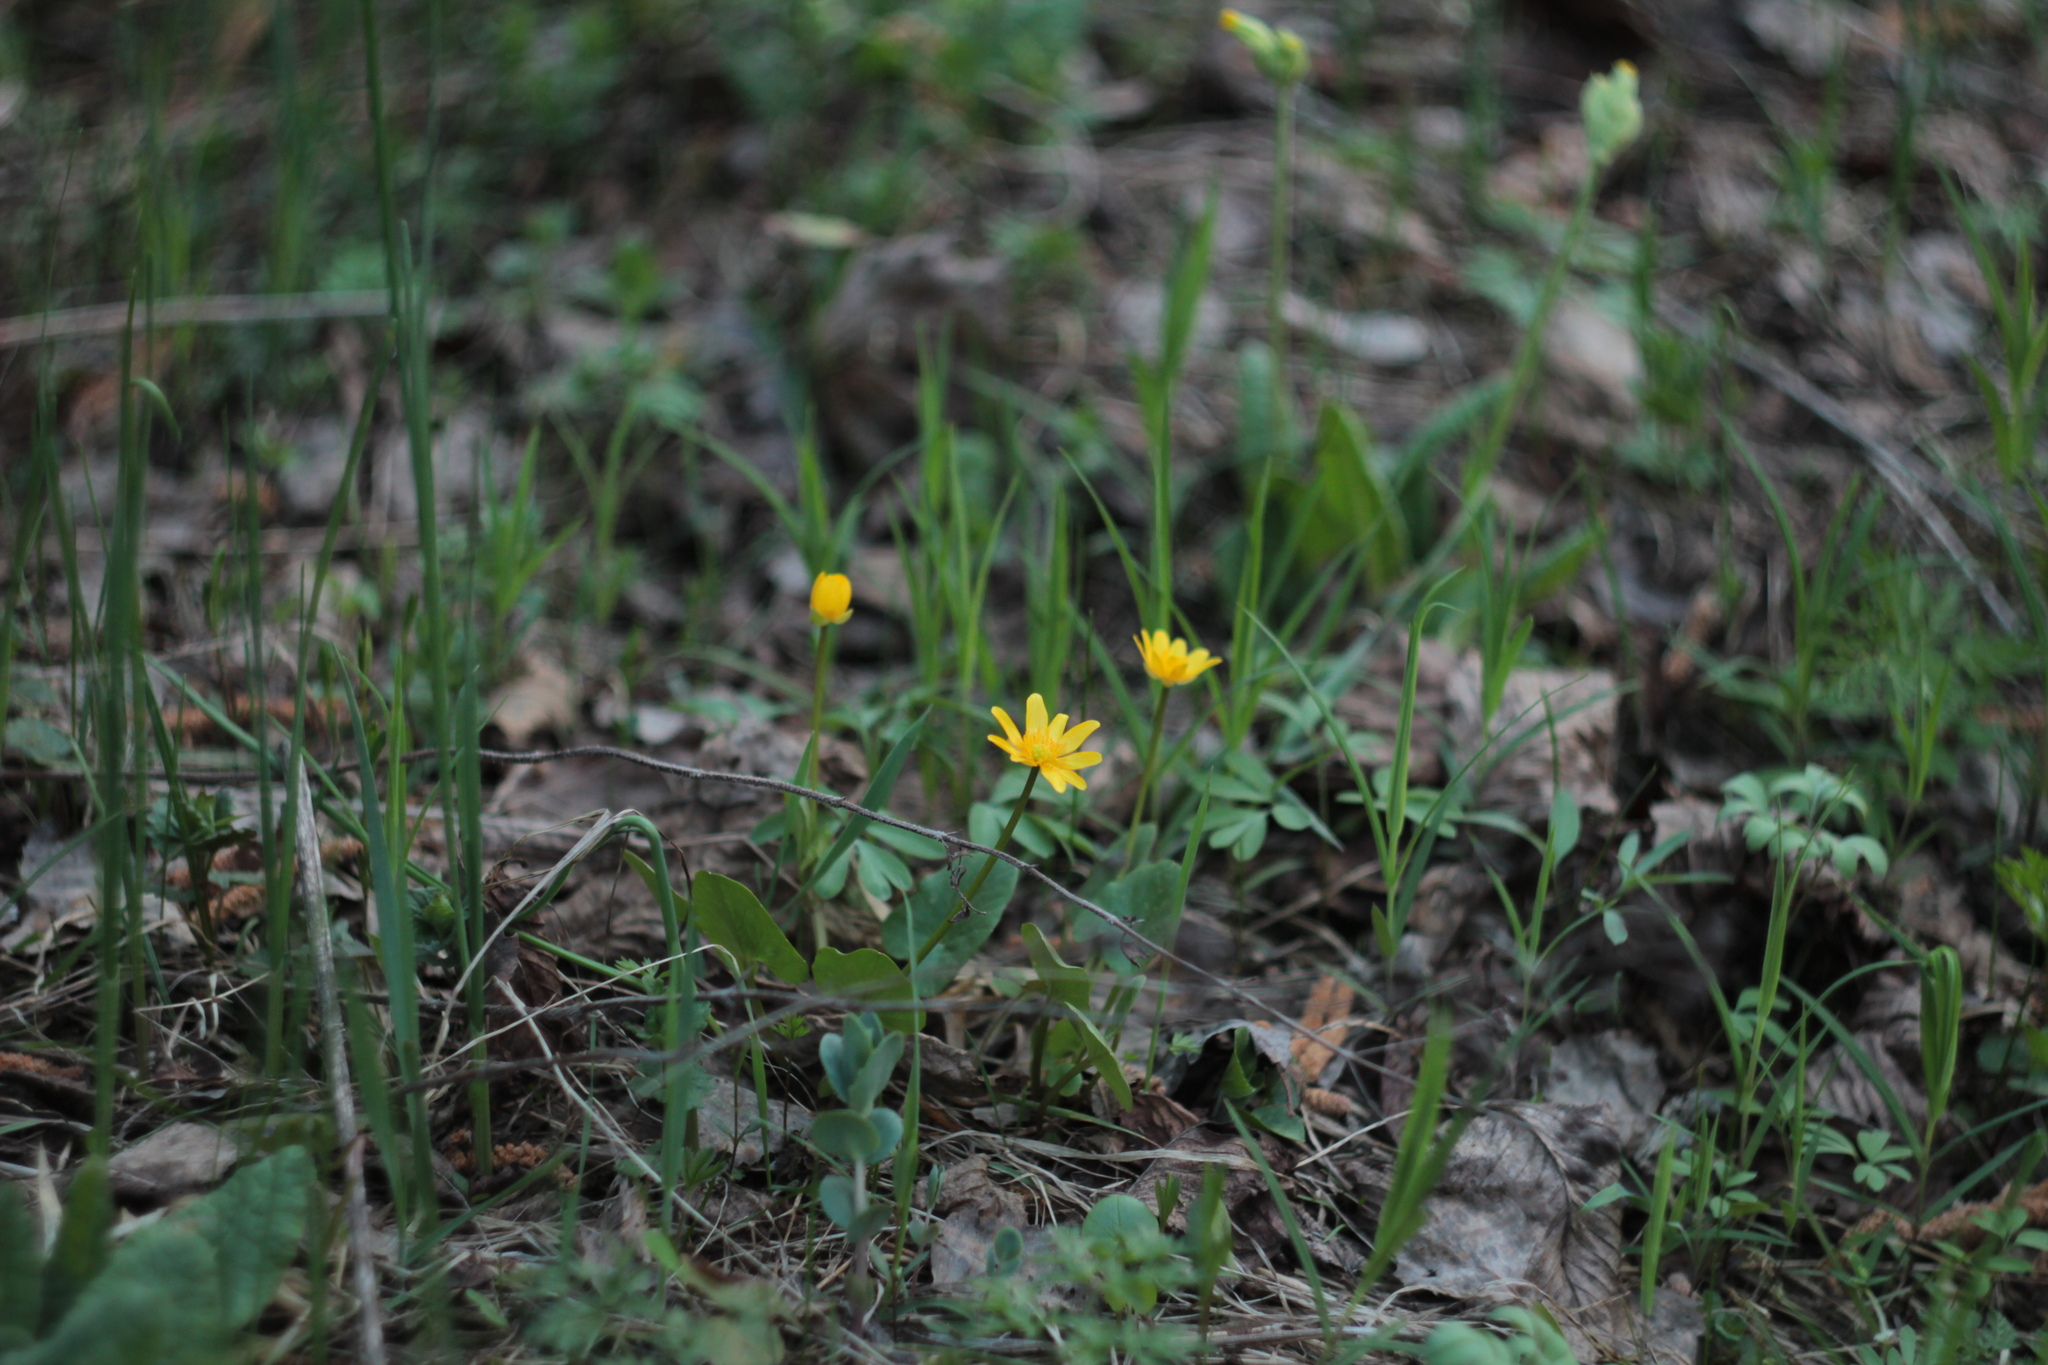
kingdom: Plantae
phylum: Tracheophyta
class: Magnoliopsida
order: Ranunculales
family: Ranunculaceae
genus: Ficaria
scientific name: Ficaria verna
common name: Lesser celandine
